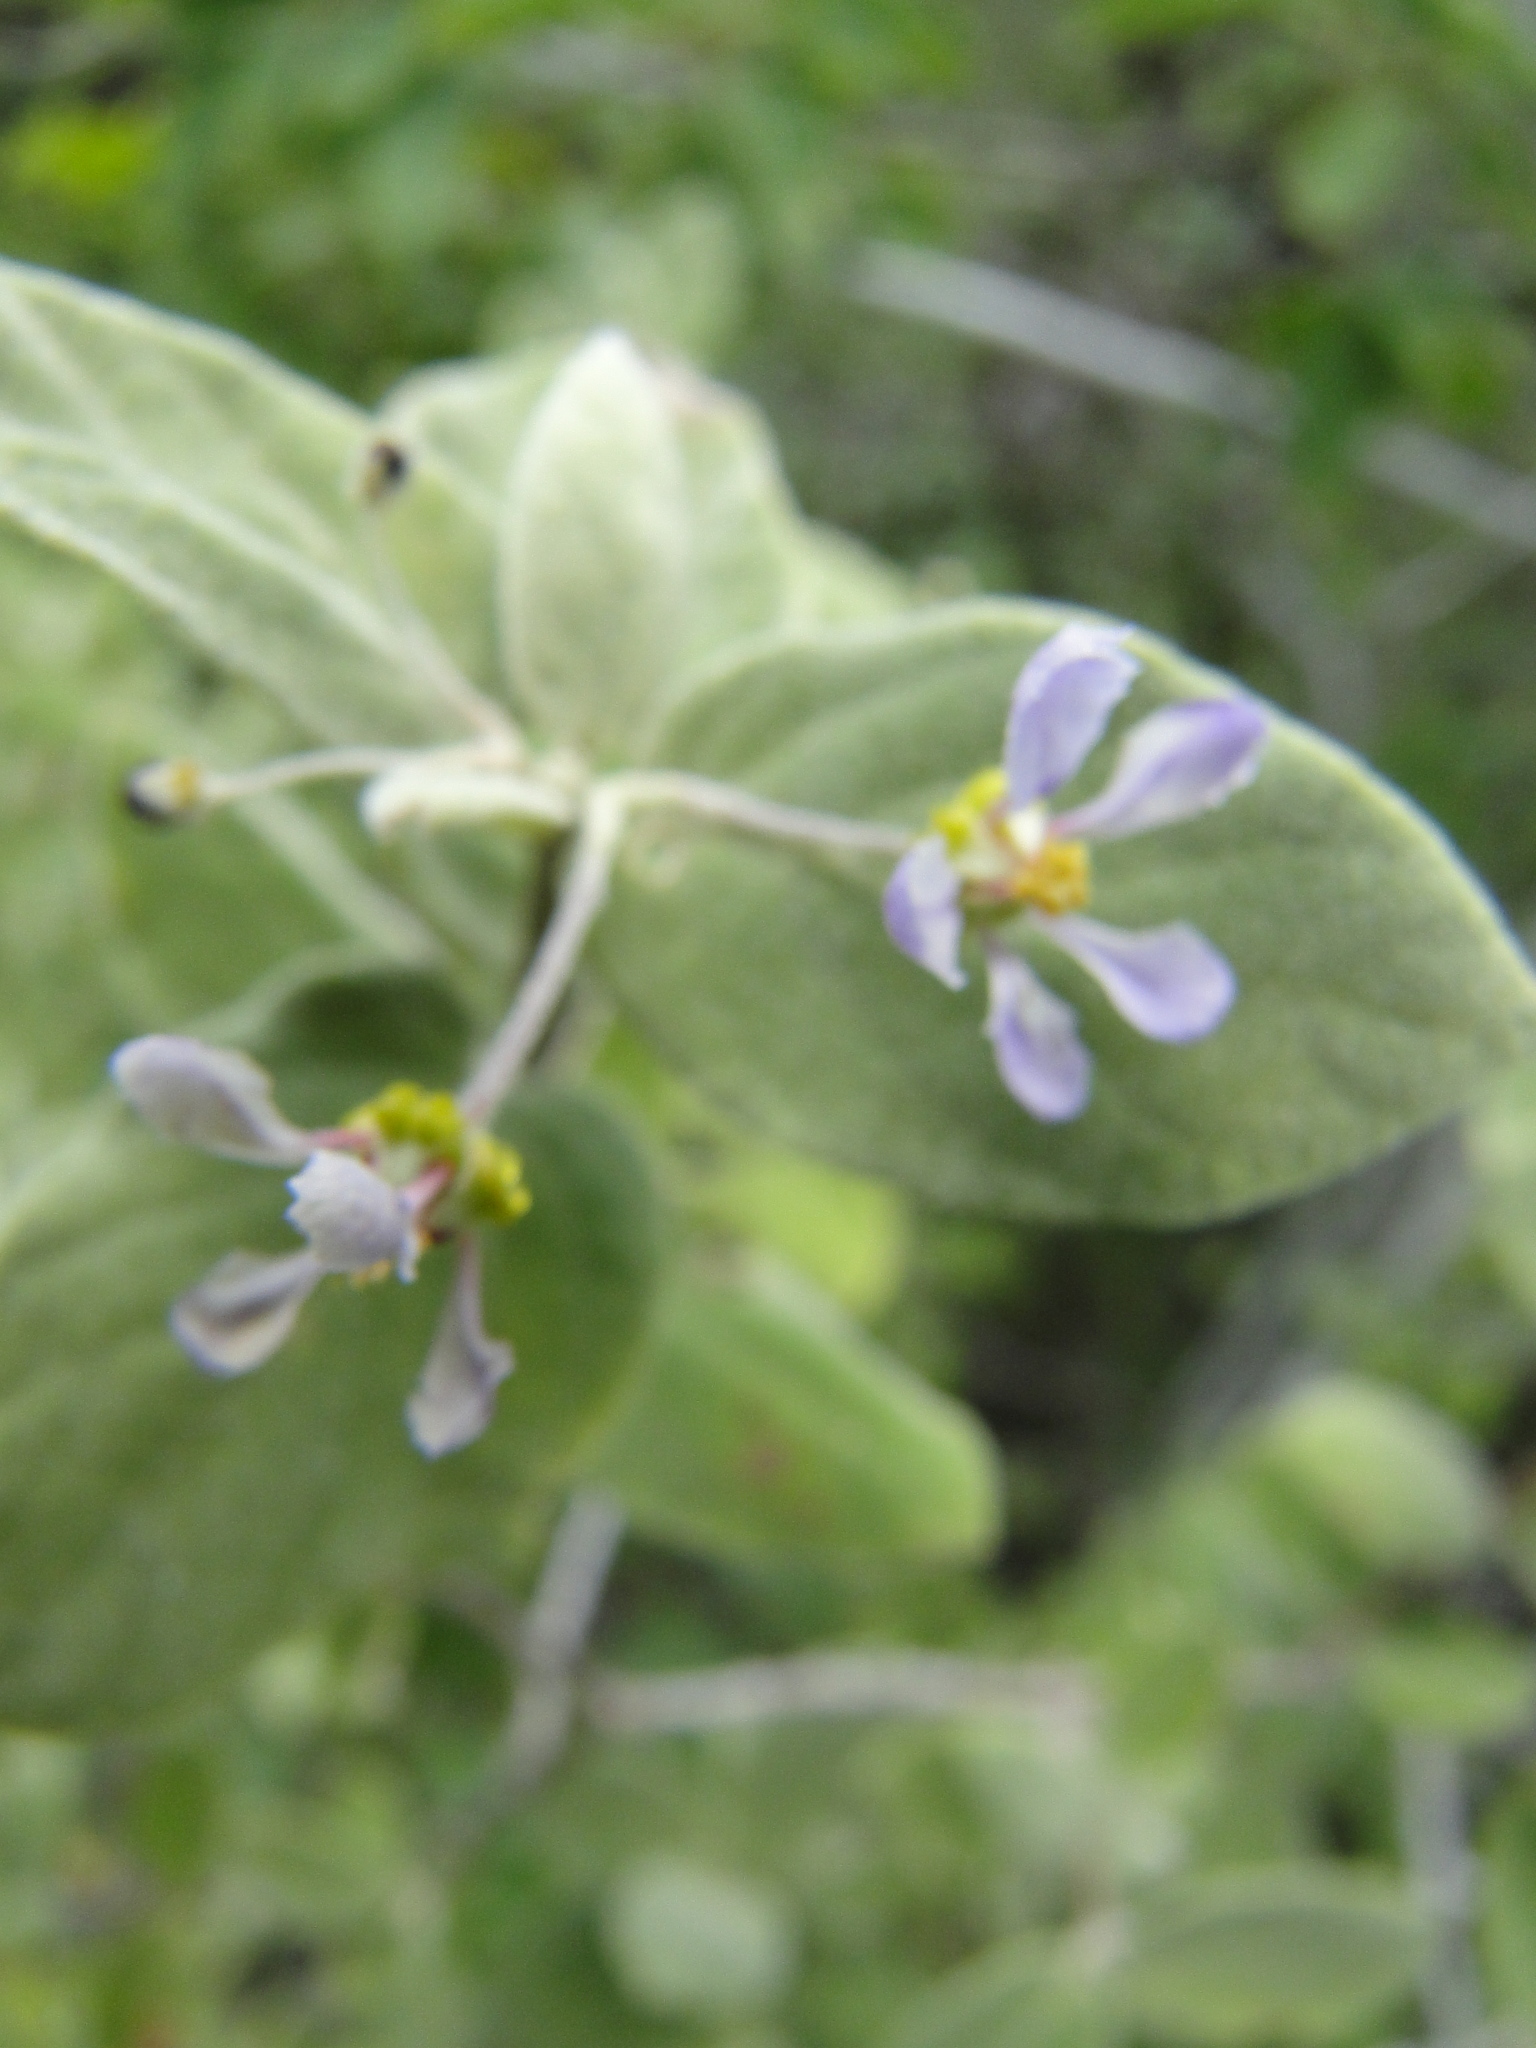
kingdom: Plantae
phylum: Tracheophyta
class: Magnoliopsida
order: Malpighiales
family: Malpighiaceae
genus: Calcicola
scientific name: Calcicola parvifolia
